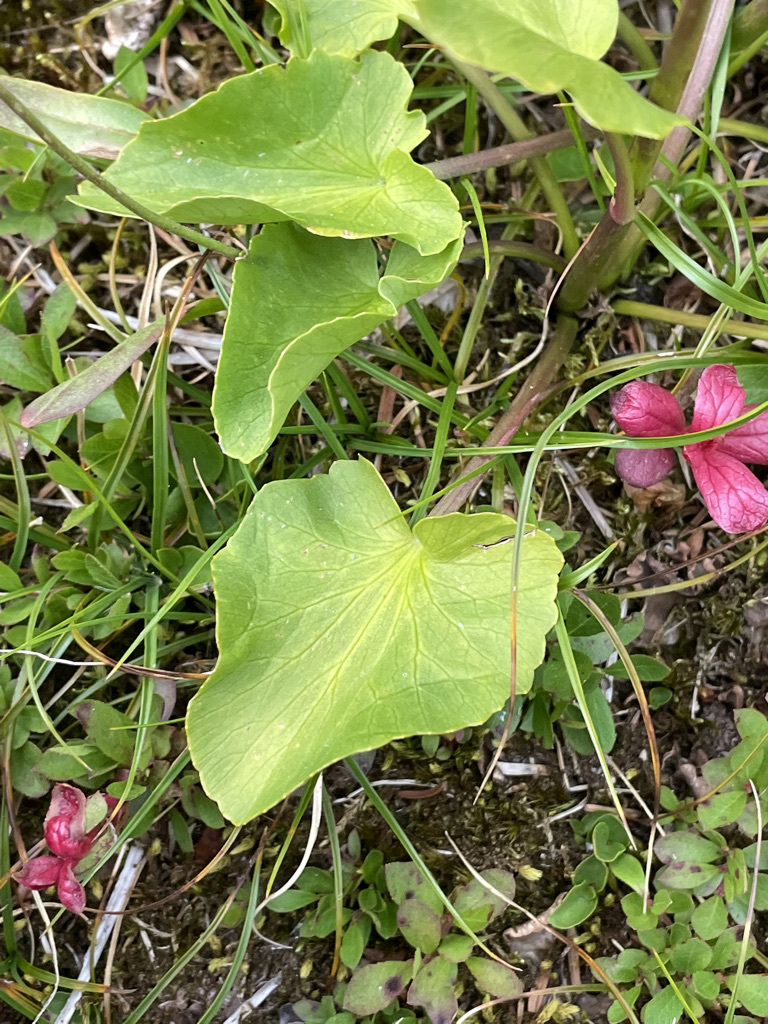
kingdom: Plantae
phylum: Tracheophyta
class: Magnoliopsida
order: Ranunculales
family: Ranunculaceae
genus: Caltha
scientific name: Caltha leptosepala
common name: Elkslip
